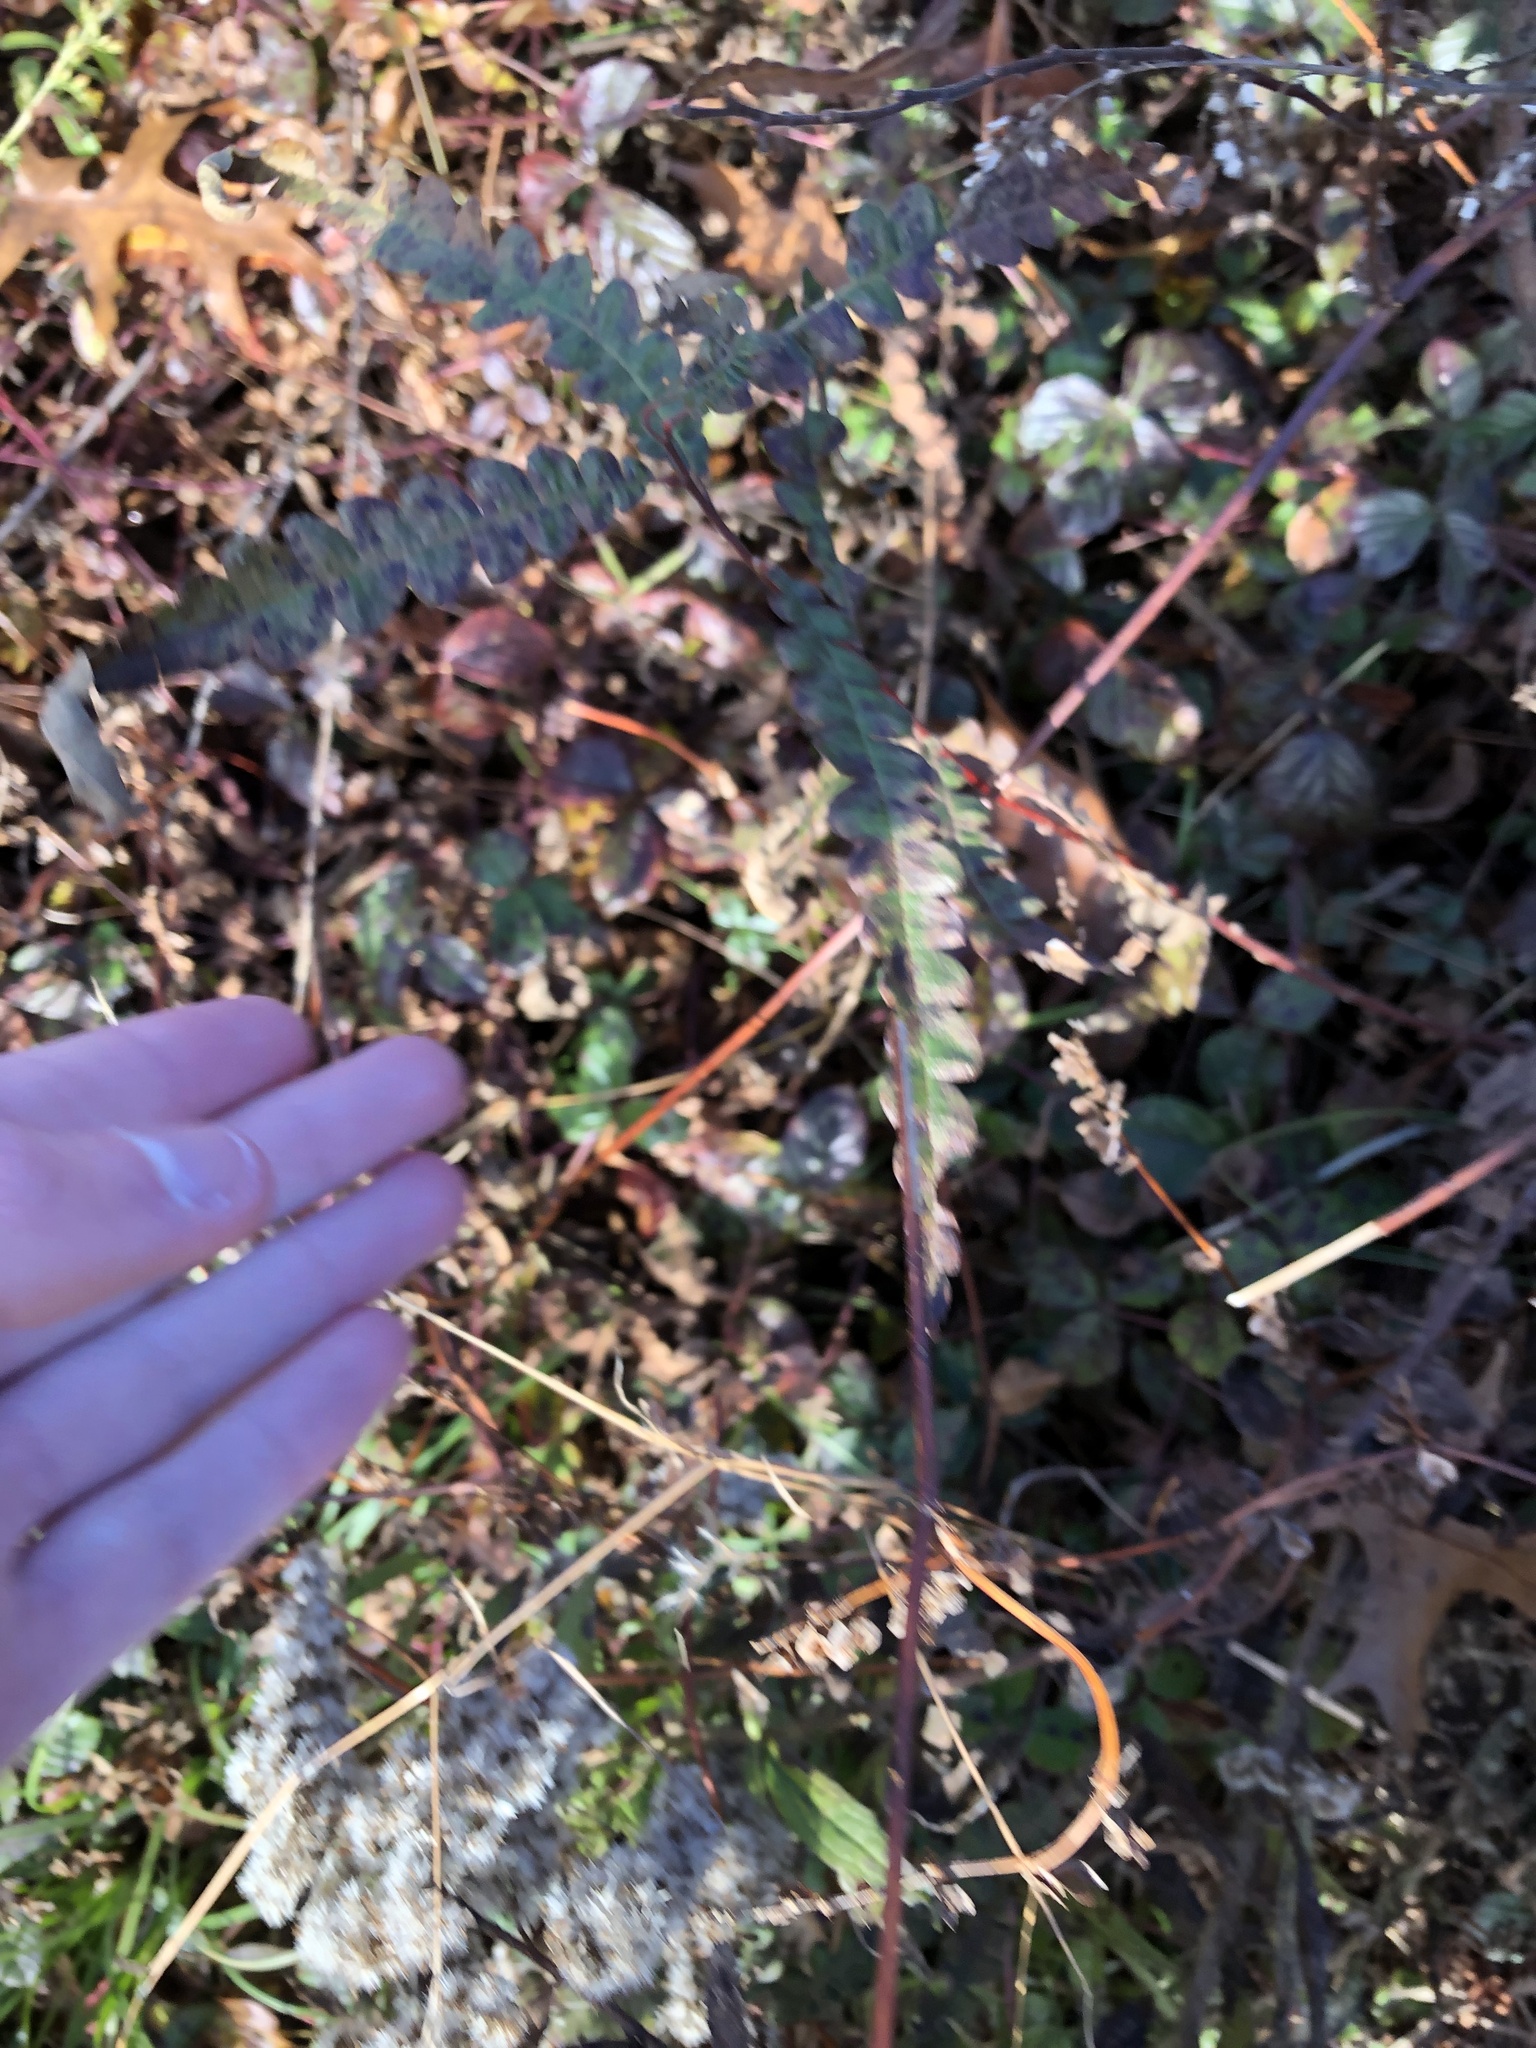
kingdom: Plantae
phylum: Tracheophyta
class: Magnoliopsida
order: Fagales
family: Myricaceae
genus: Comptonia
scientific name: Comptonia peregrina
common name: Sweet-fern
